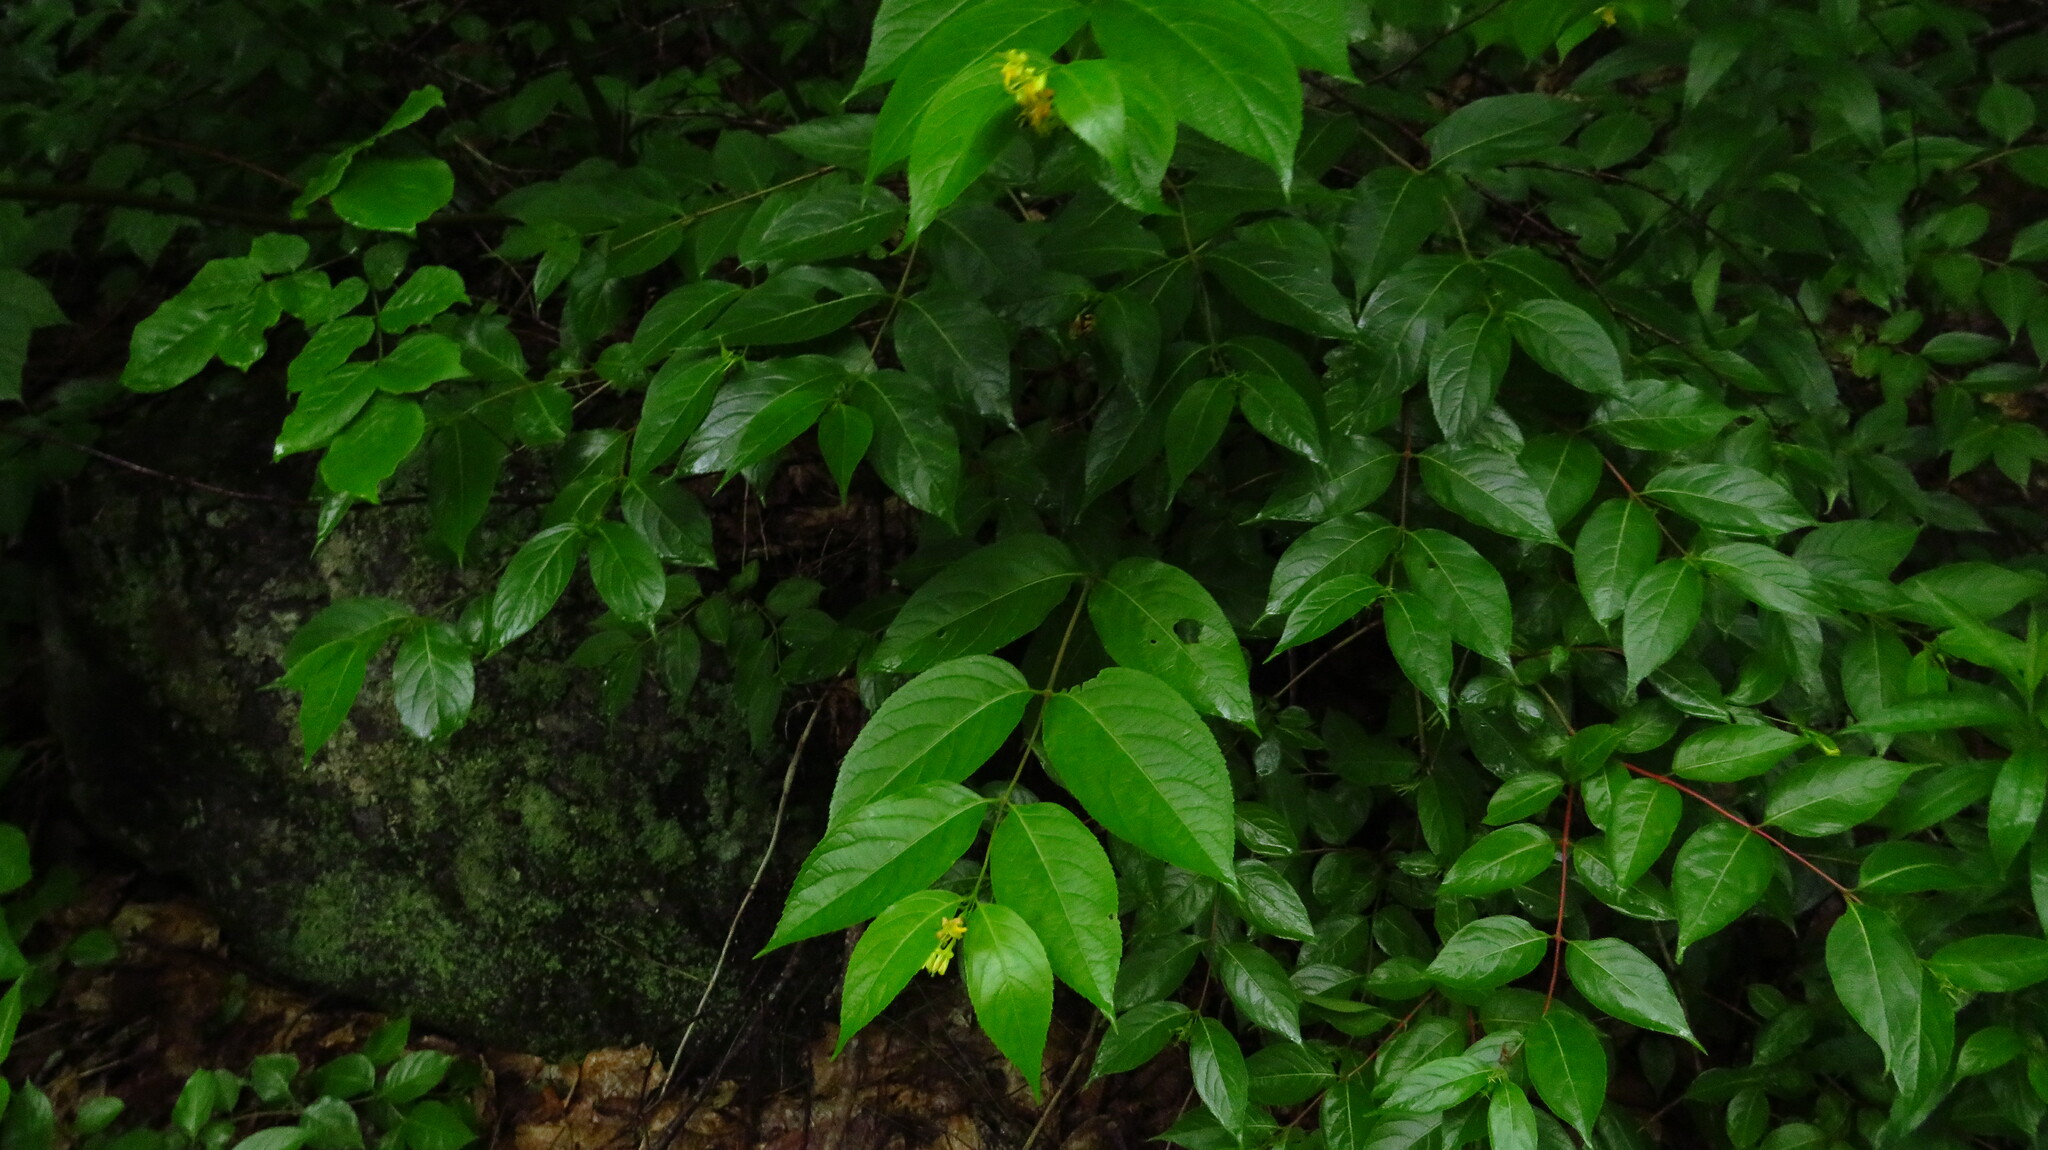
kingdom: Plantae
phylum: Tracheophyta
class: Magnoliopsida
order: Dipsacales
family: Caprifoliaceae
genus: Diervilla
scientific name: Diervilla lonicera
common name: Bush-honeysuckle
